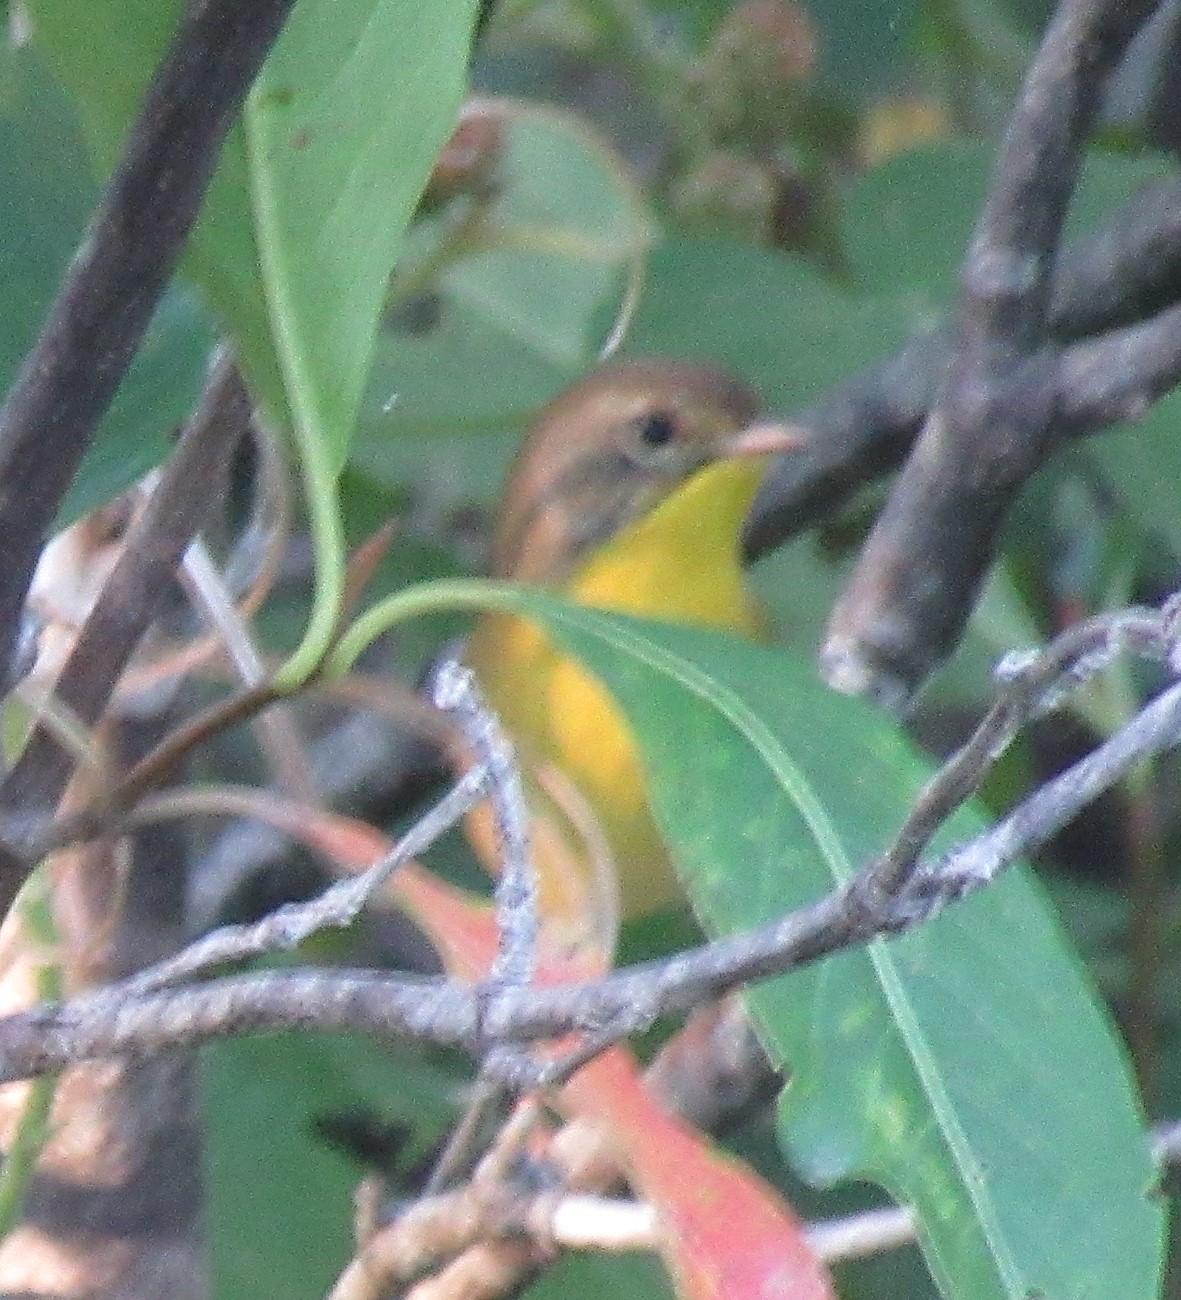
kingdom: Animalia
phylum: Chordata
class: Aves
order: Passeriformes
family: Parulidae
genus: Geothlypis
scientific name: Geothlypis trichas
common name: Common yellowthroat
